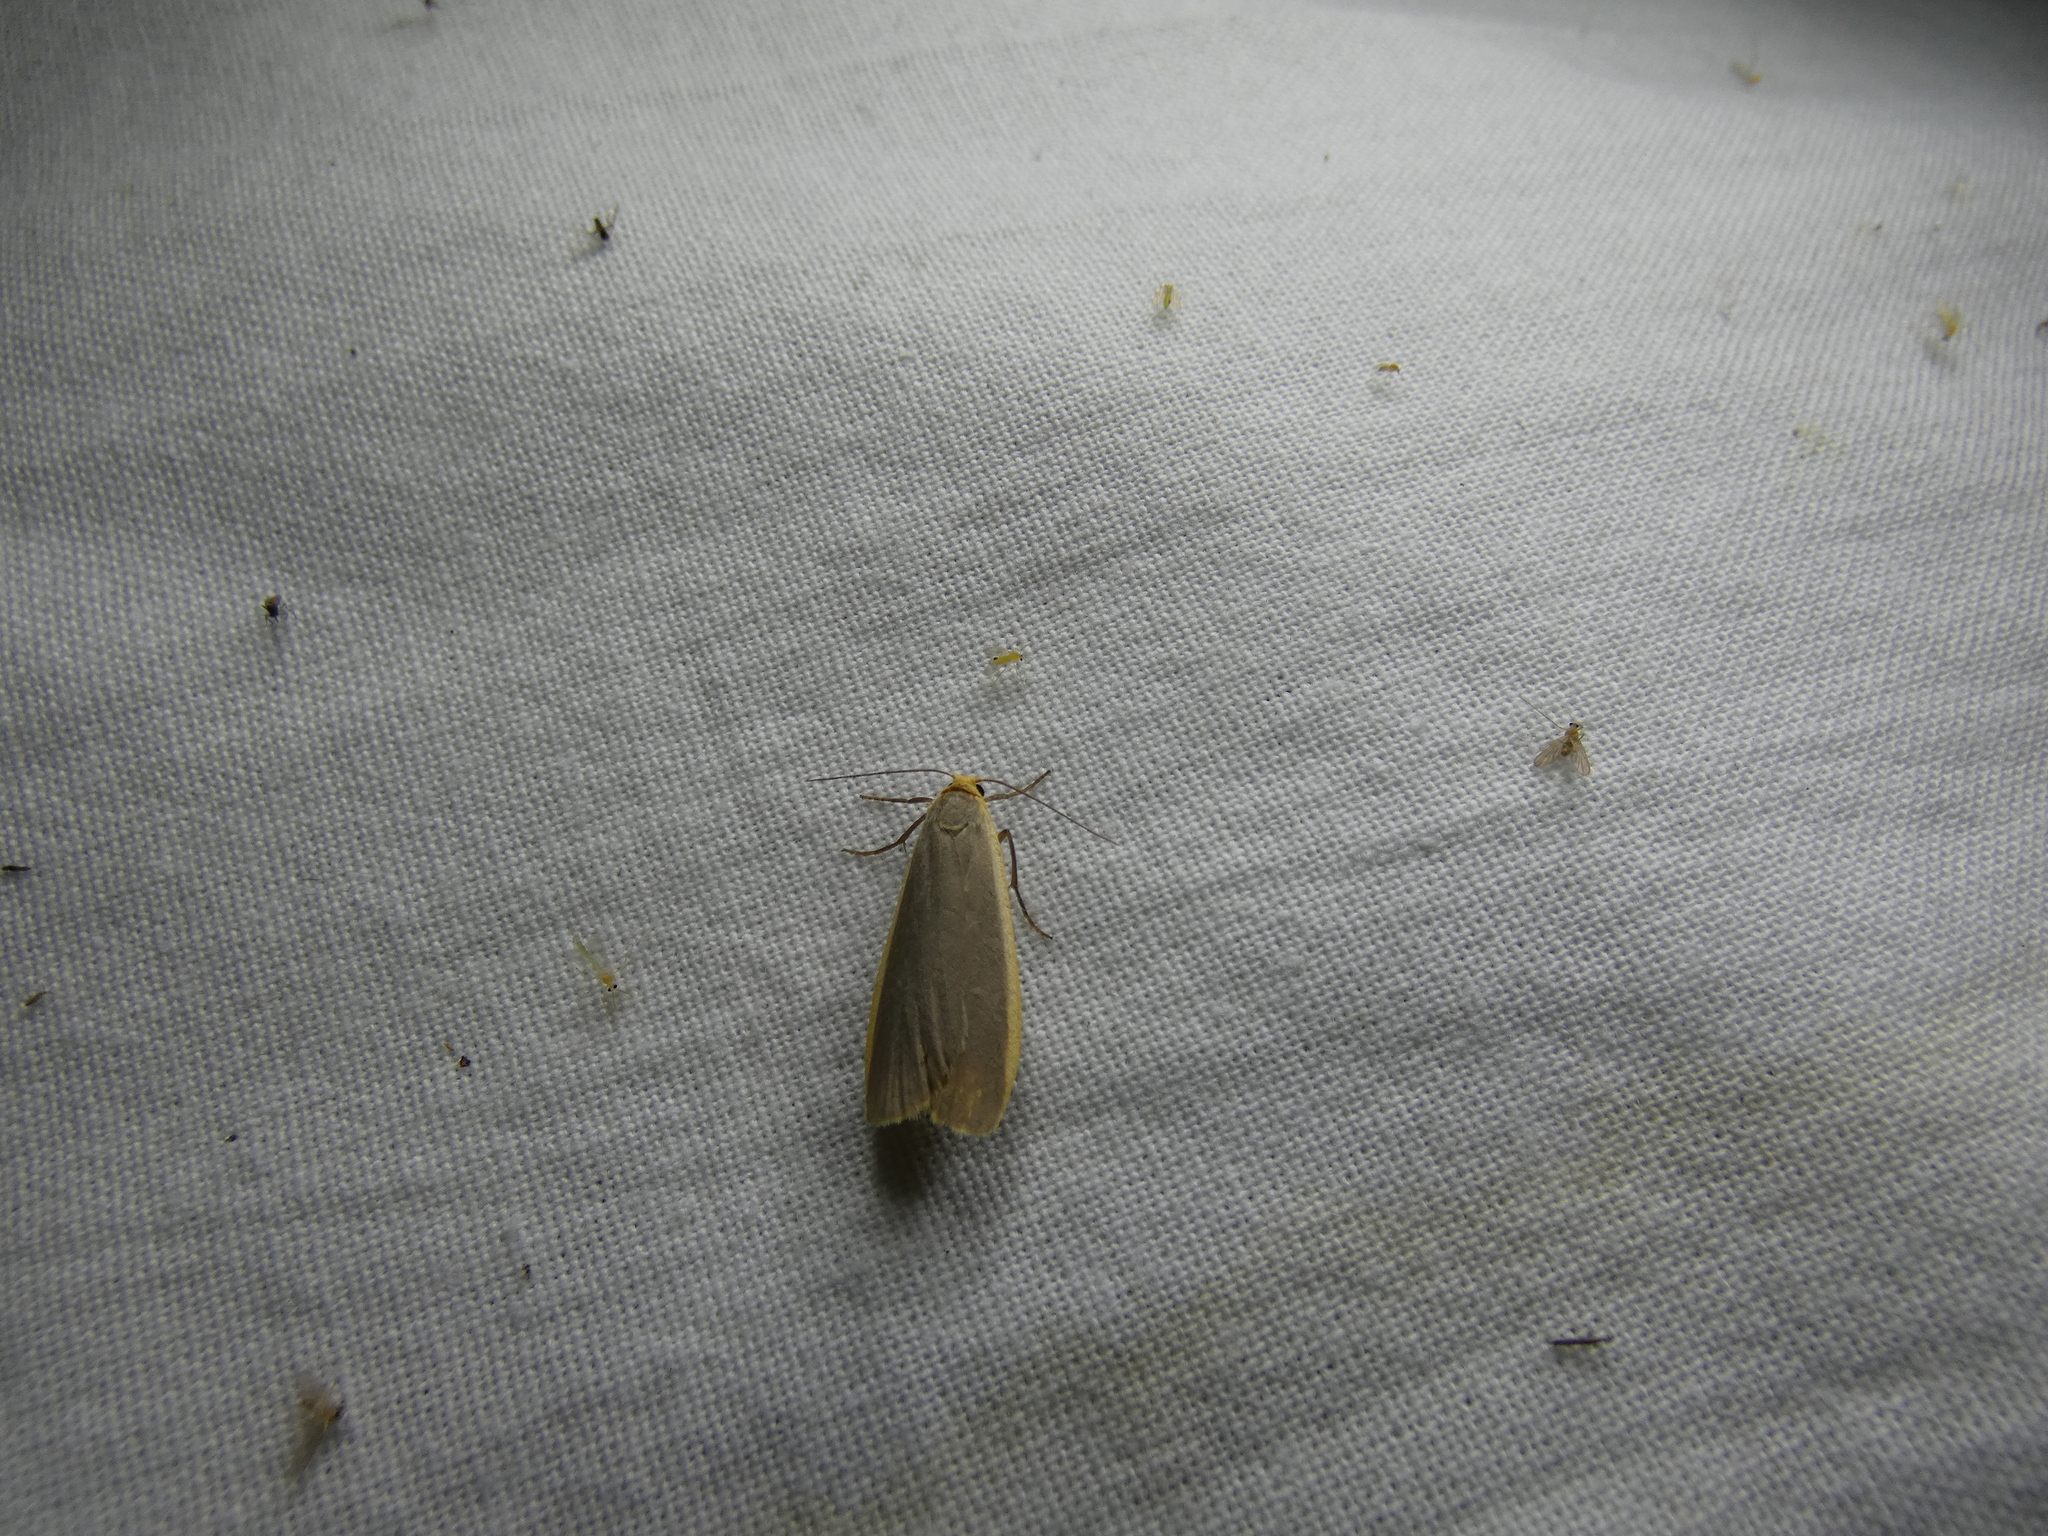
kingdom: Animalia
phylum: Arthropoda
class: Insecta
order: Lepidoptera
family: Erebidae
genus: Nyea
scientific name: Nyea lurideola
